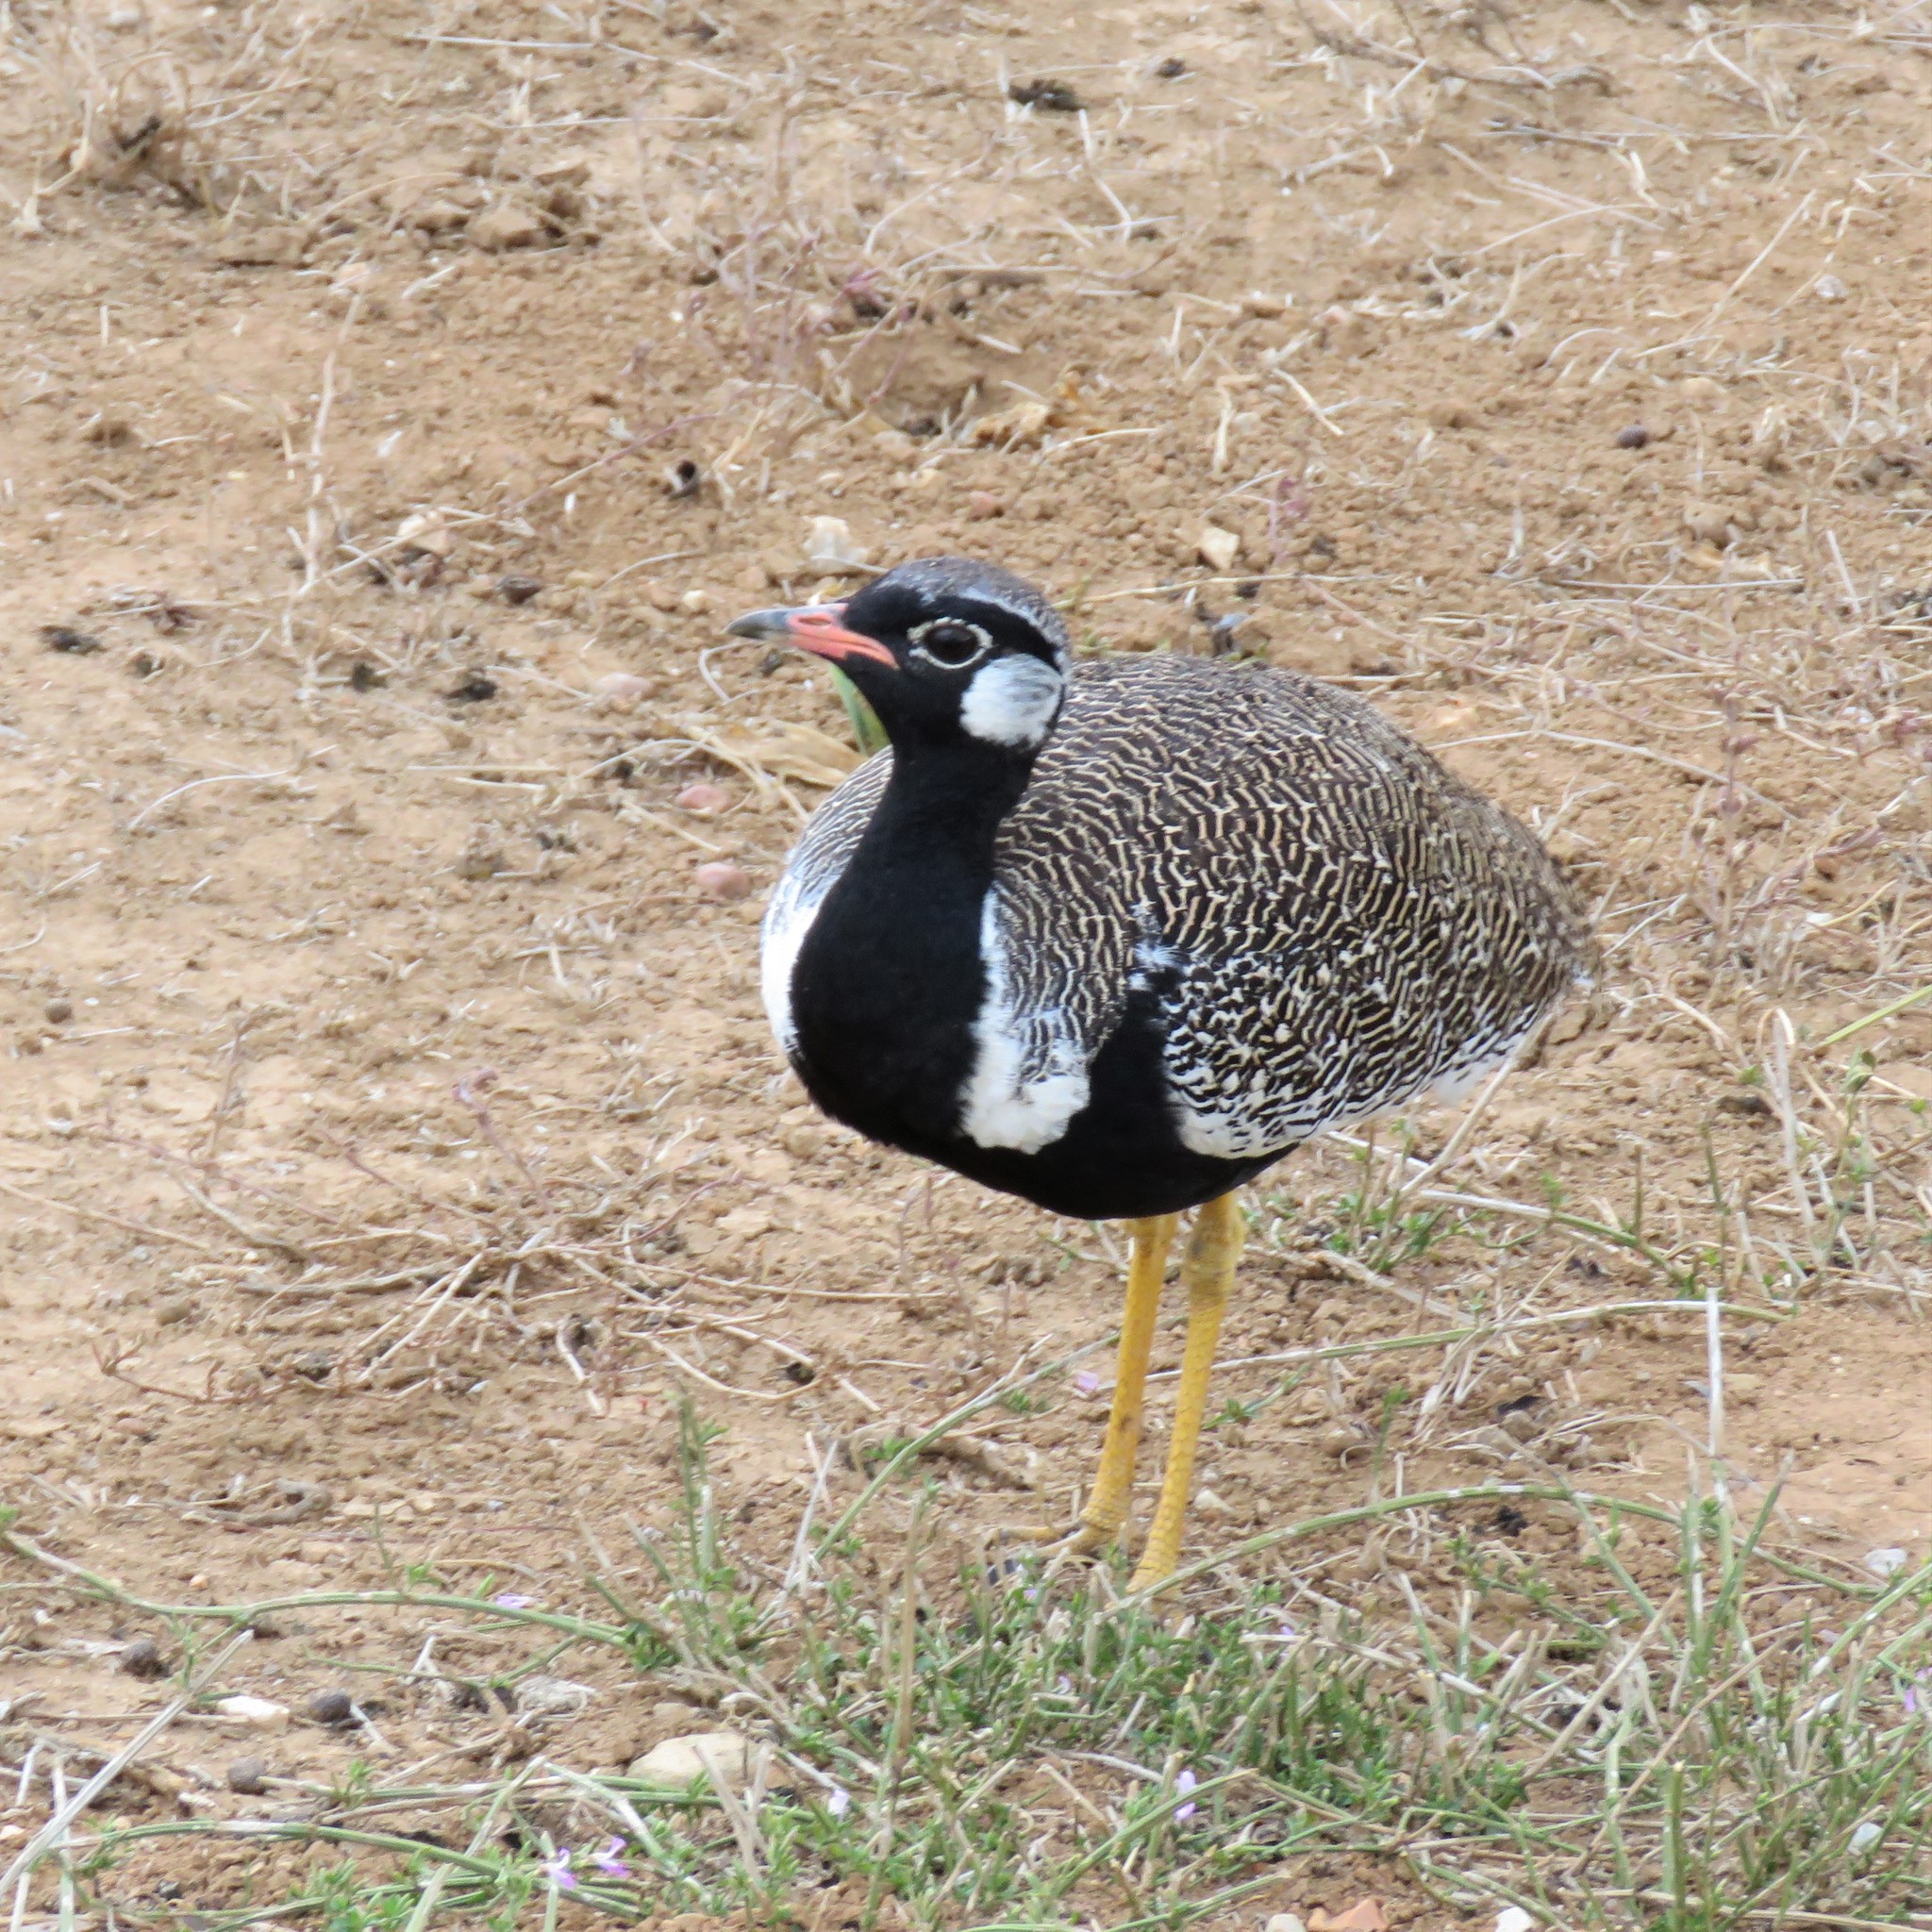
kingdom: Animalia
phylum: Chordata
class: Aves
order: Otidiformes
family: Otididae
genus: Afrotis
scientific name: Afrotis afra
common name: Southern black korhaan
